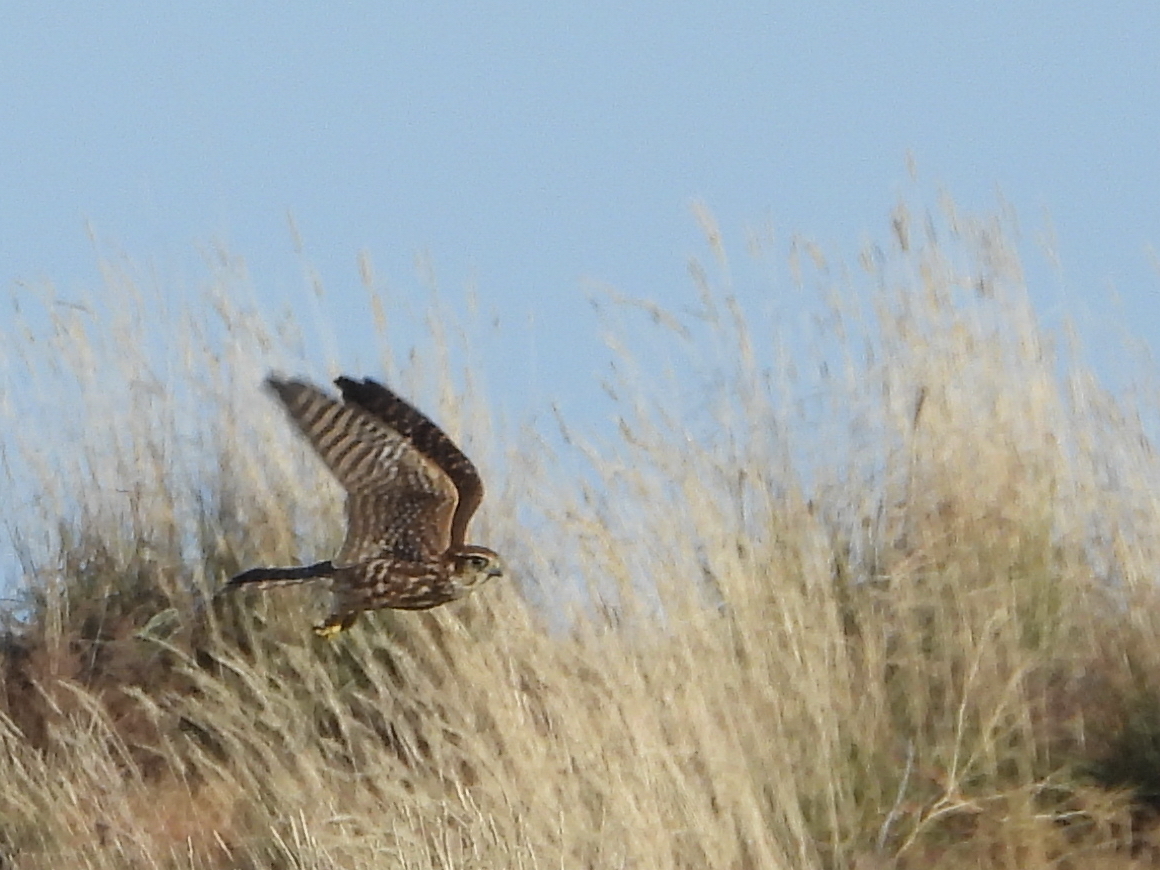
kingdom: Animalia
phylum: Chordata
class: Aves
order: Falconiformes
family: Falconidae
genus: Falco
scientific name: Falco columbarius
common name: Merlin
